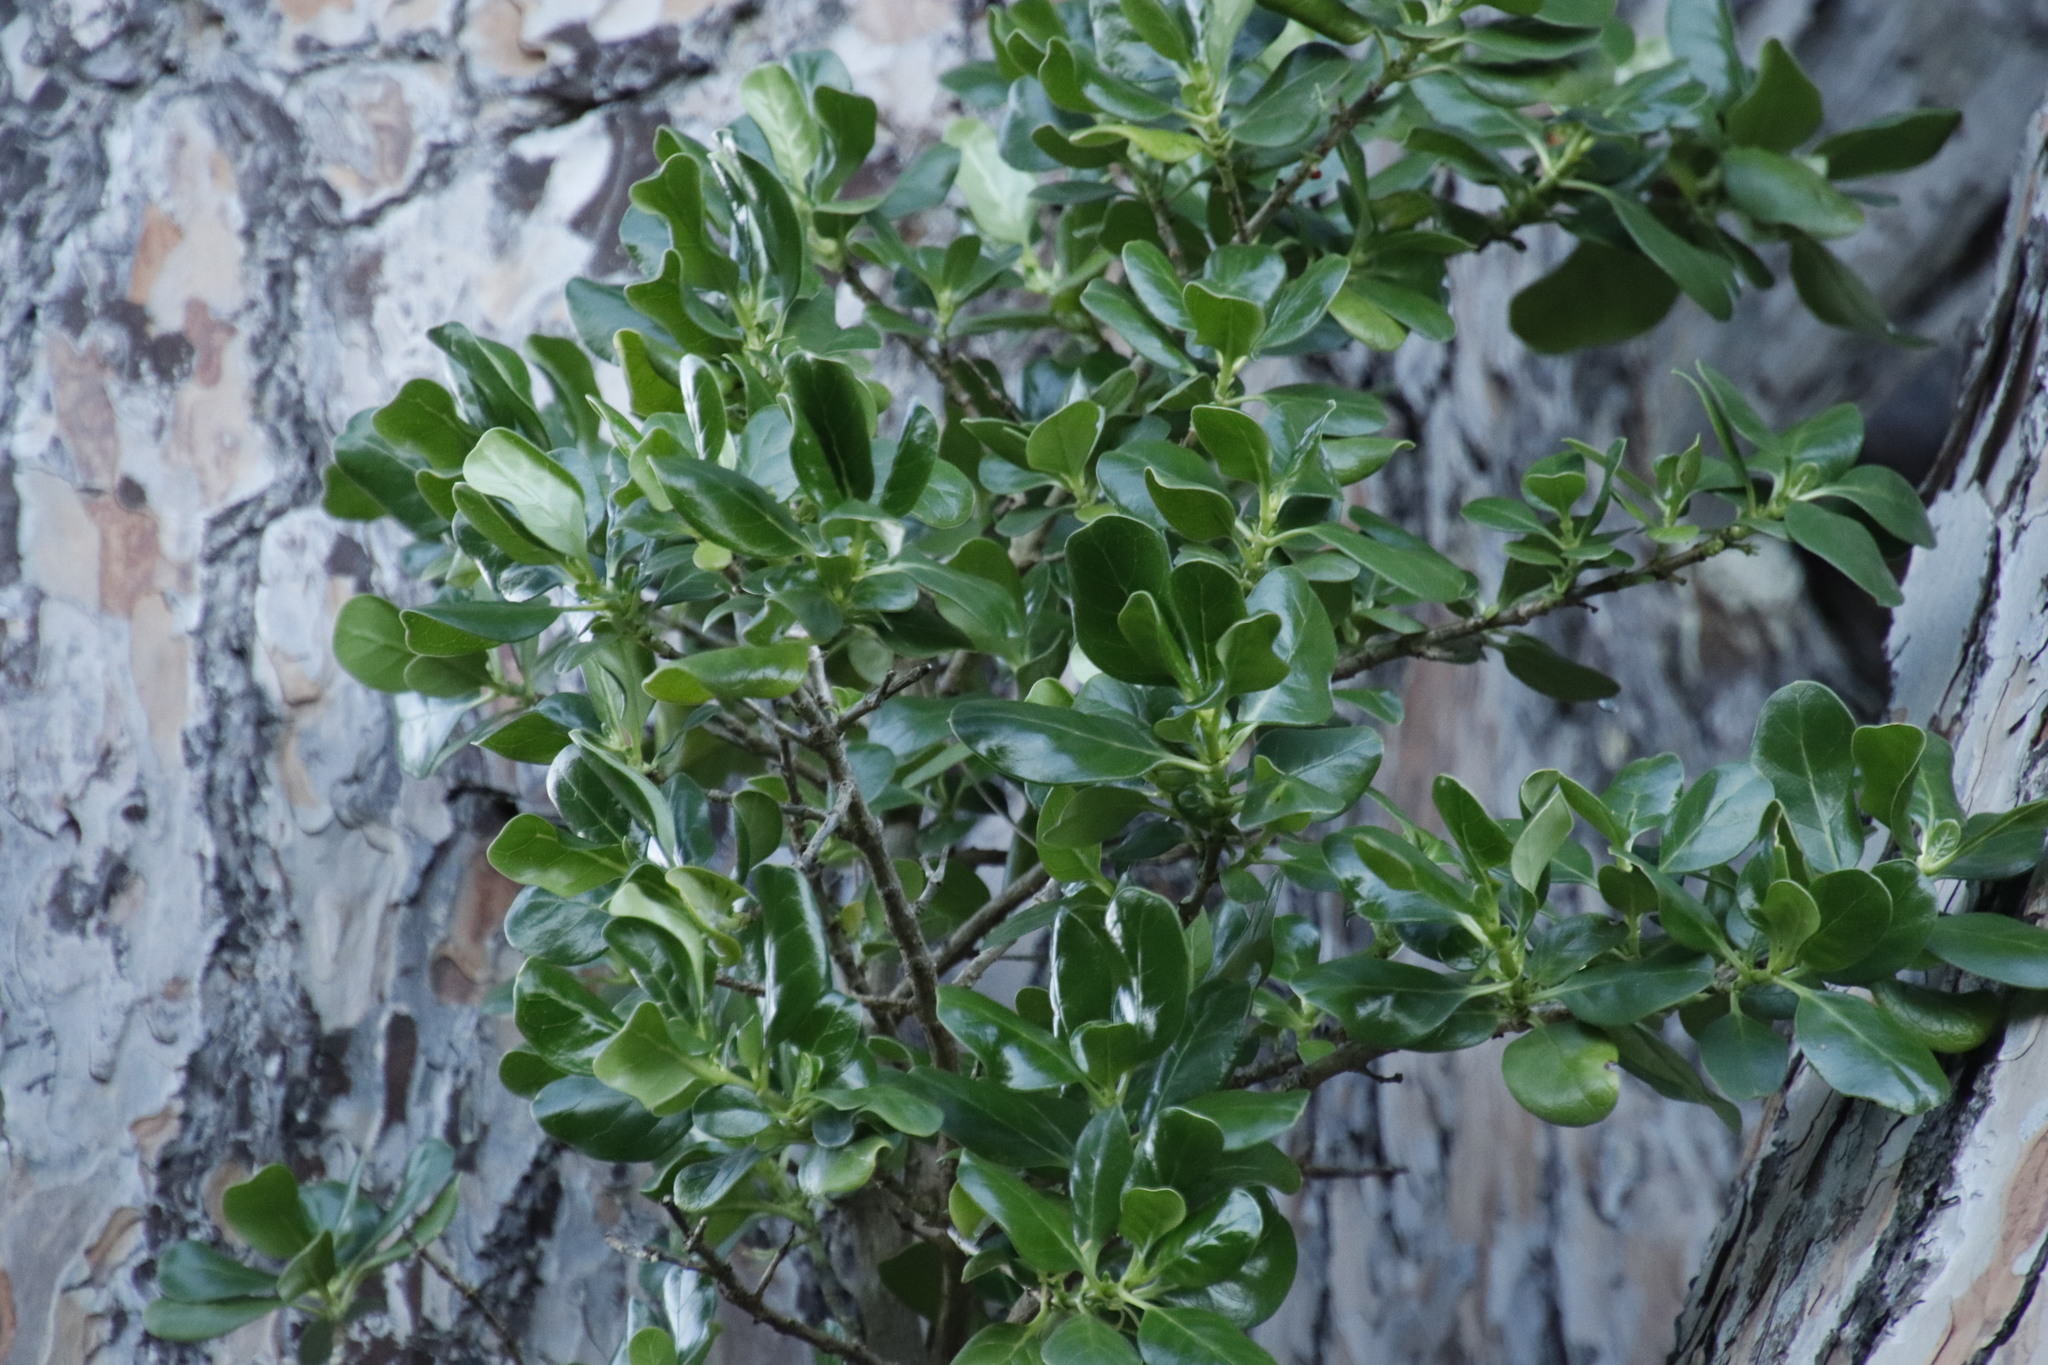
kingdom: Plantae
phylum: Tracheophyta
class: Magnoliopsida
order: Gentianales
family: Rubiaceae
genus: Coprosma
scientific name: Coprosma repens
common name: Tree bedstraw
